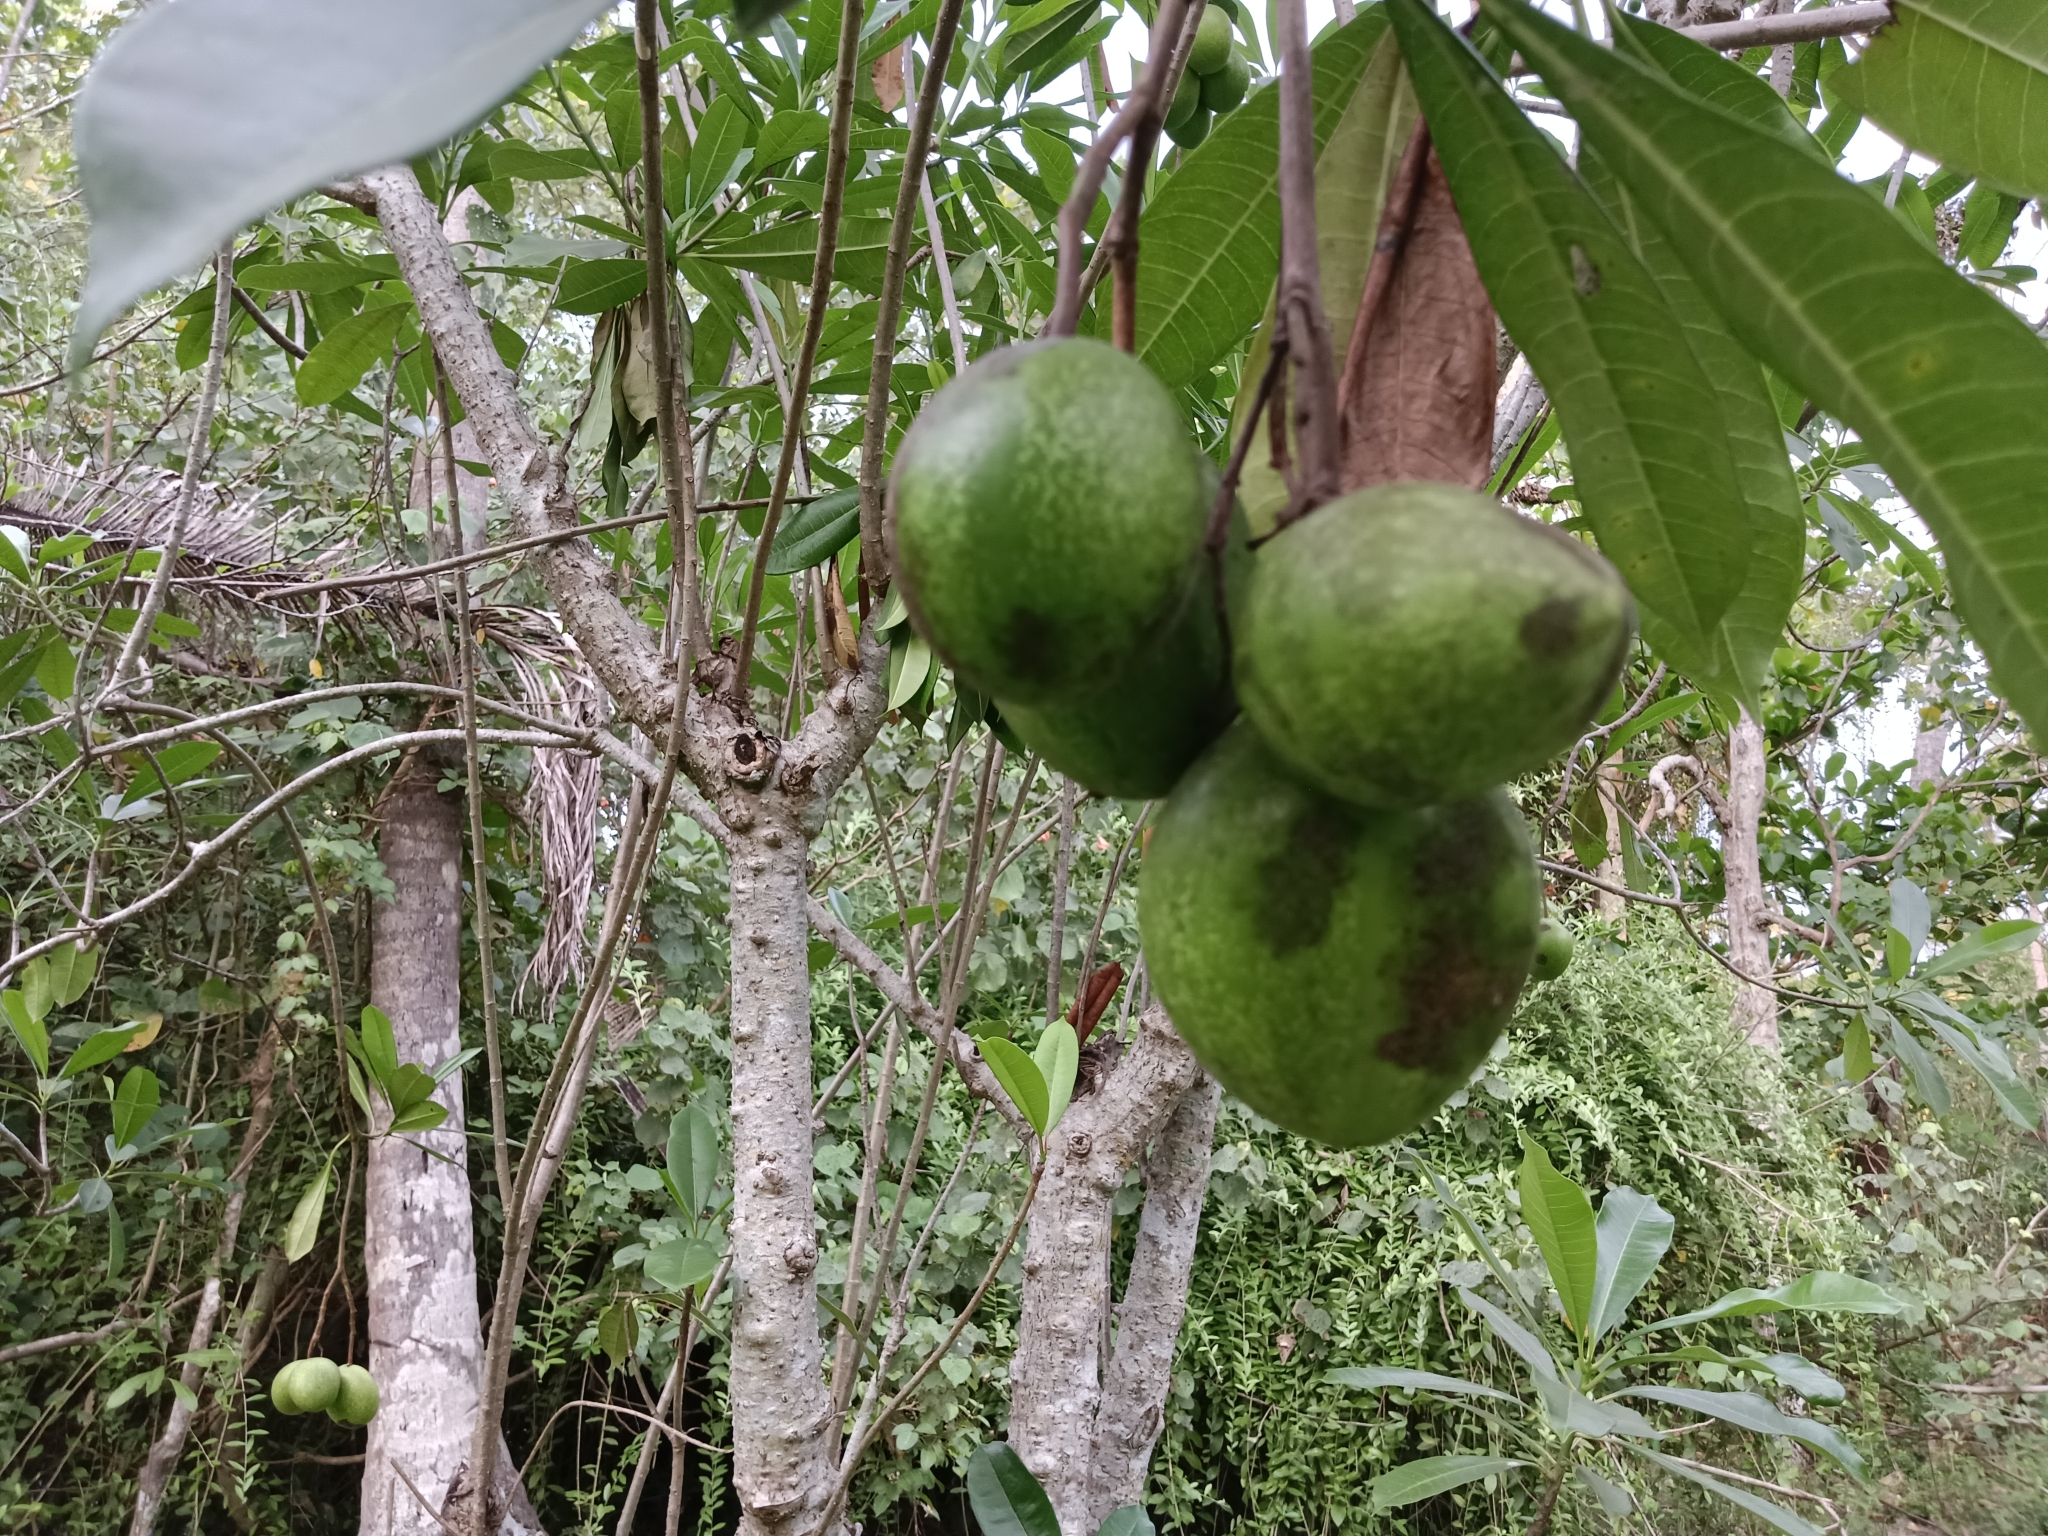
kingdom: Plantae
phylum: Tracheophyta
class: Magnoliopsida
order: Gentianales
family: Apocynaceae
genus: Cerbera
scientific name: Cerbera odollam
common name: Pong-pong
